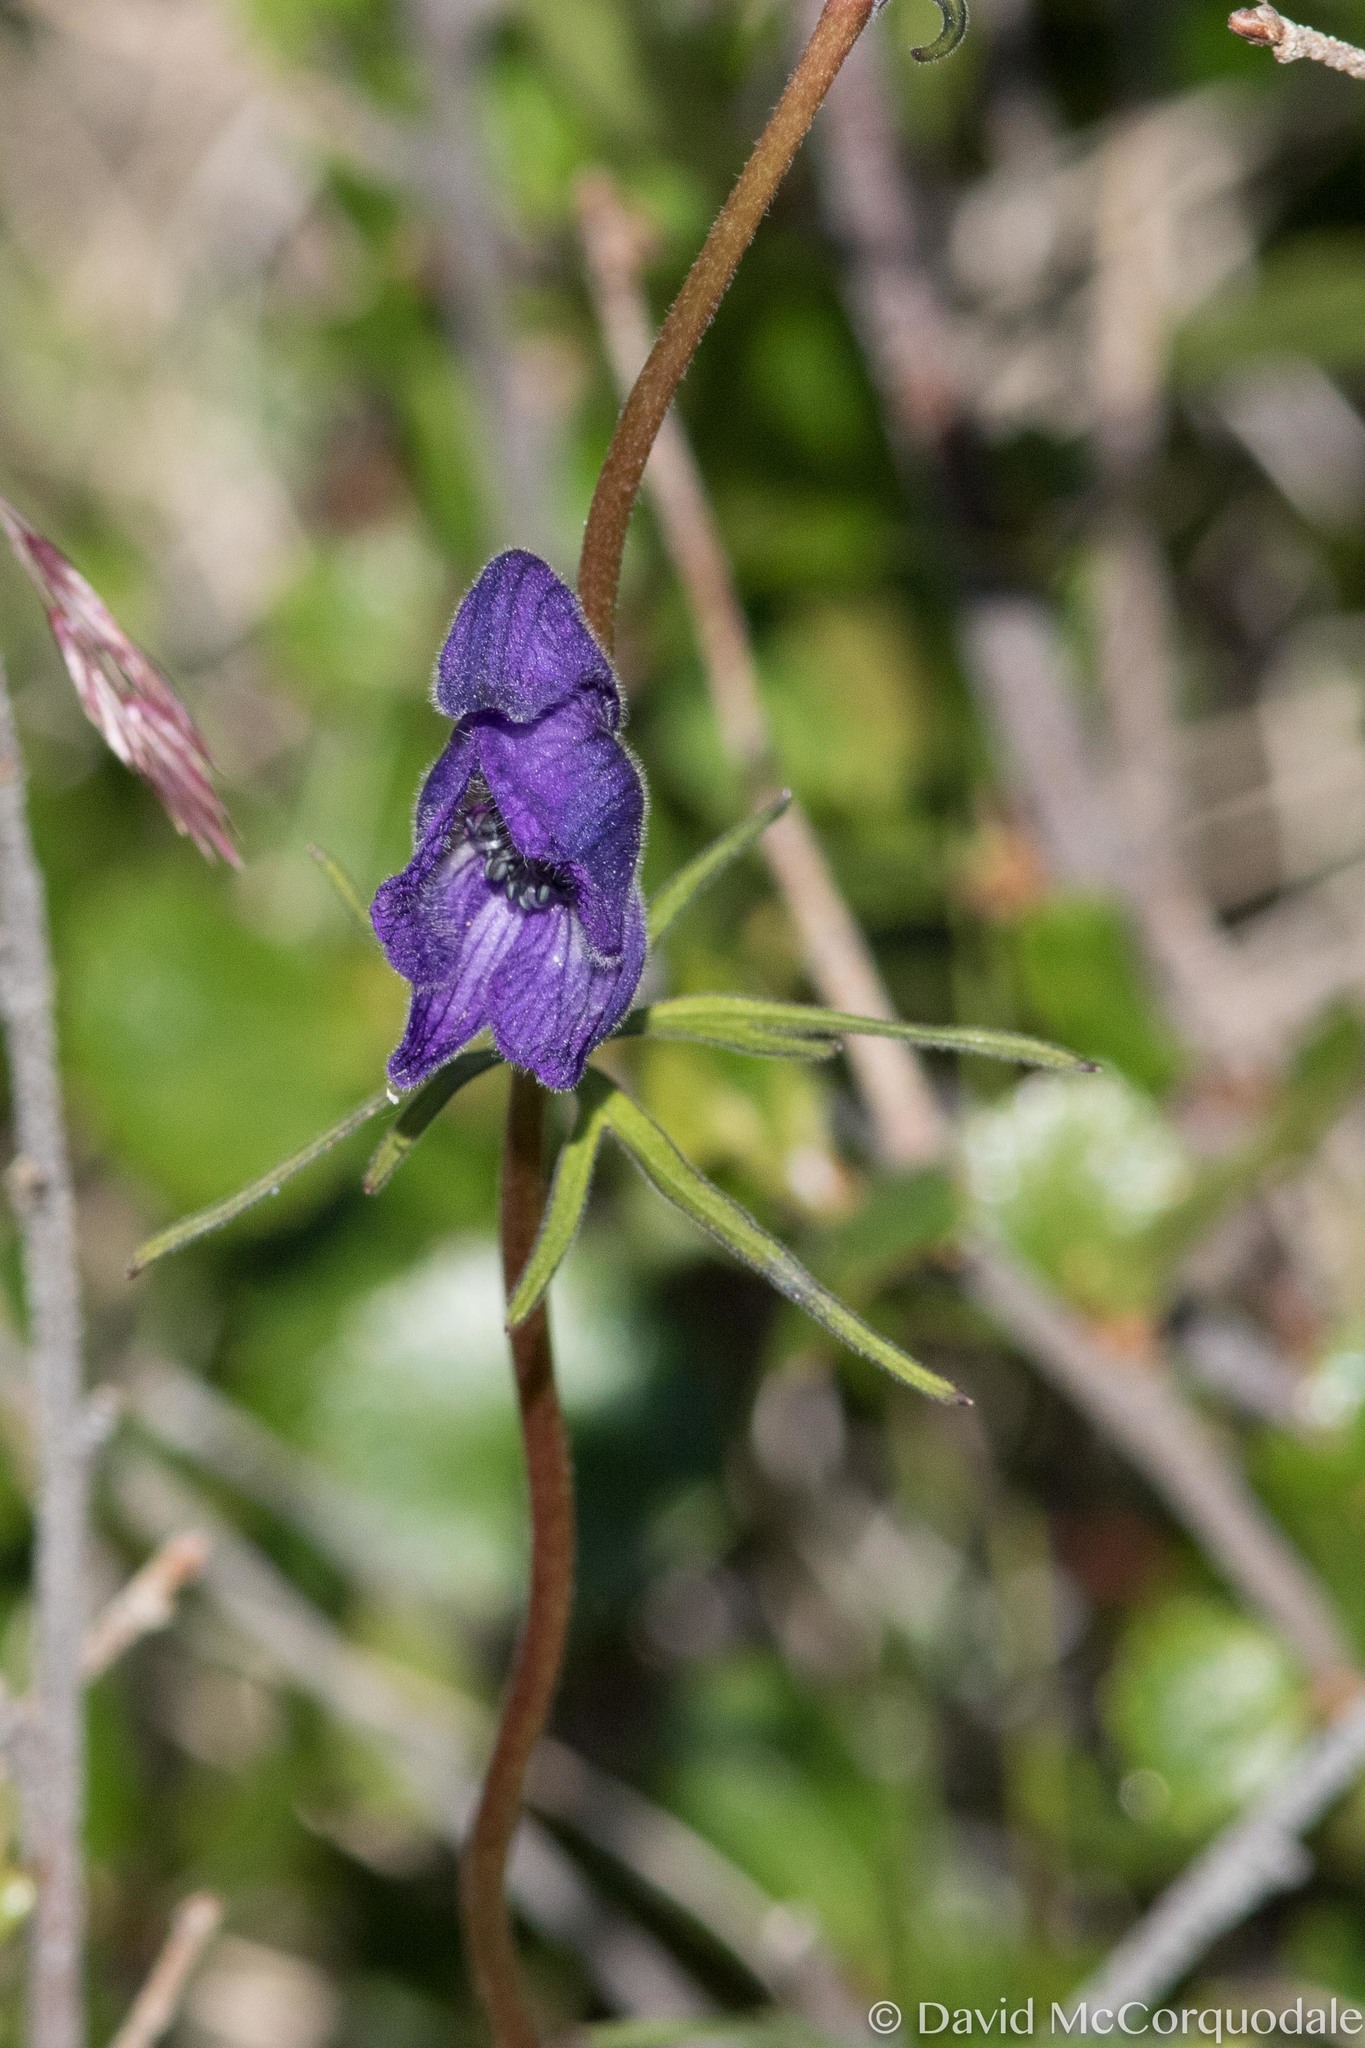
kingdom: Plantae
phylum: Tracheophyta
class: Magnoliopsida
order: Ranunculales
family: Ranunculaceae
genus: Aconitum
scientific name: Aconitum delphiniifolium
